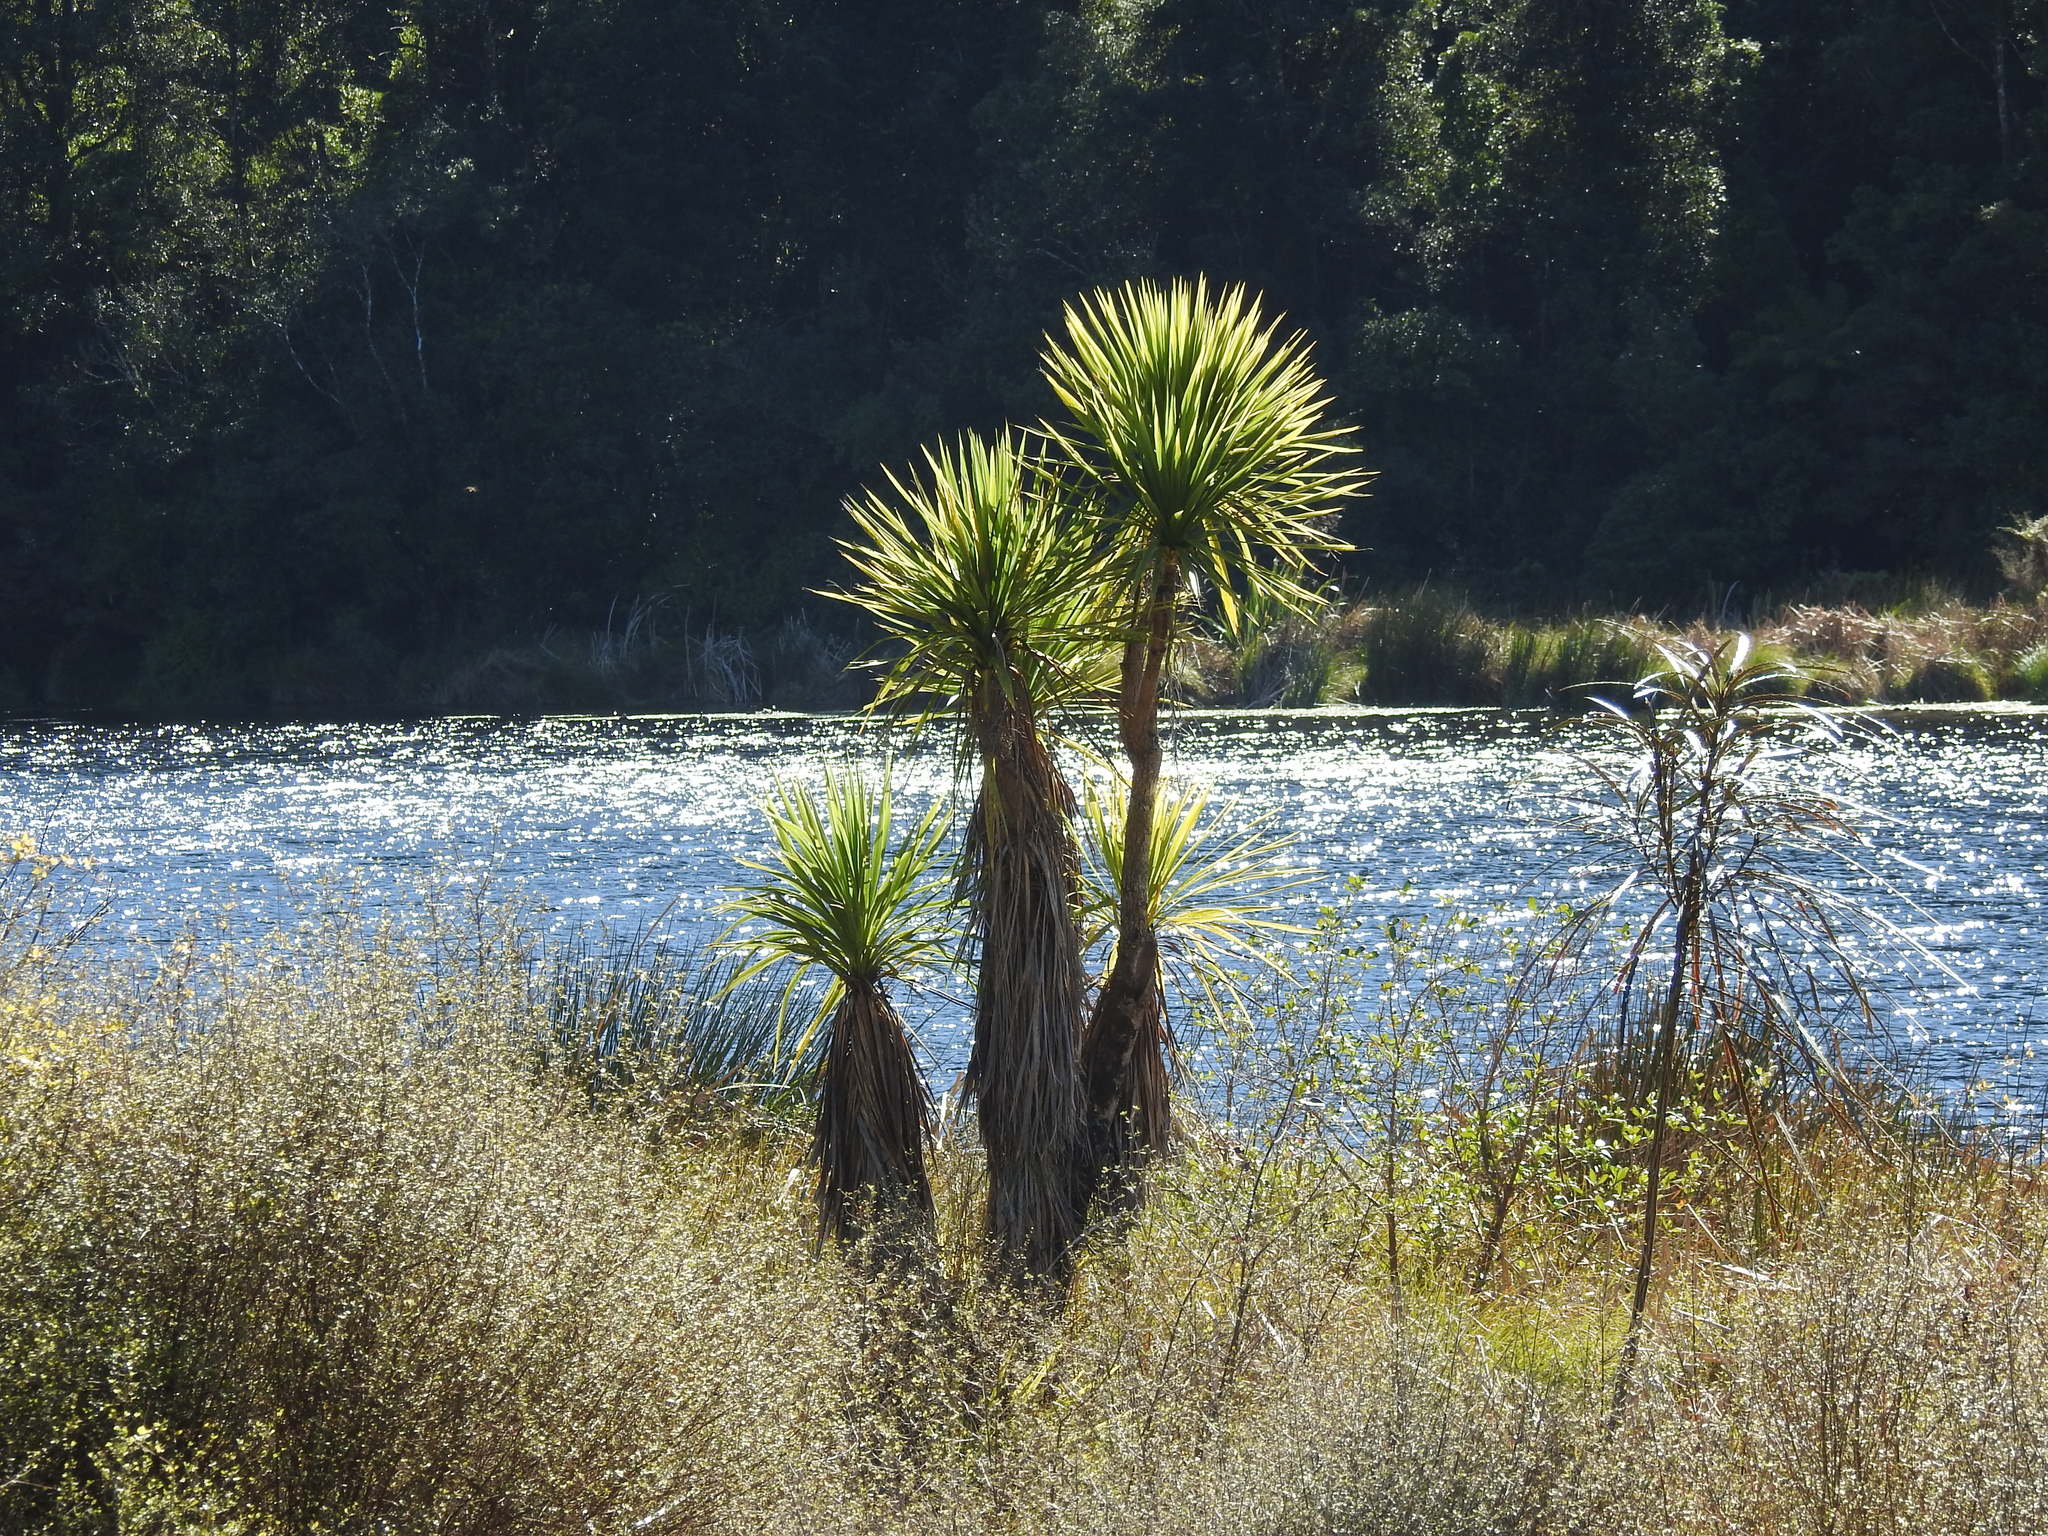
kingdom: Plantae
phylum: Tracheophyta
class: Liliopsida
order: Asparagales
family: Asparagaceae
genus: Cordyline
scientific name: Cordyline australis
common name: Cabbage-palm
